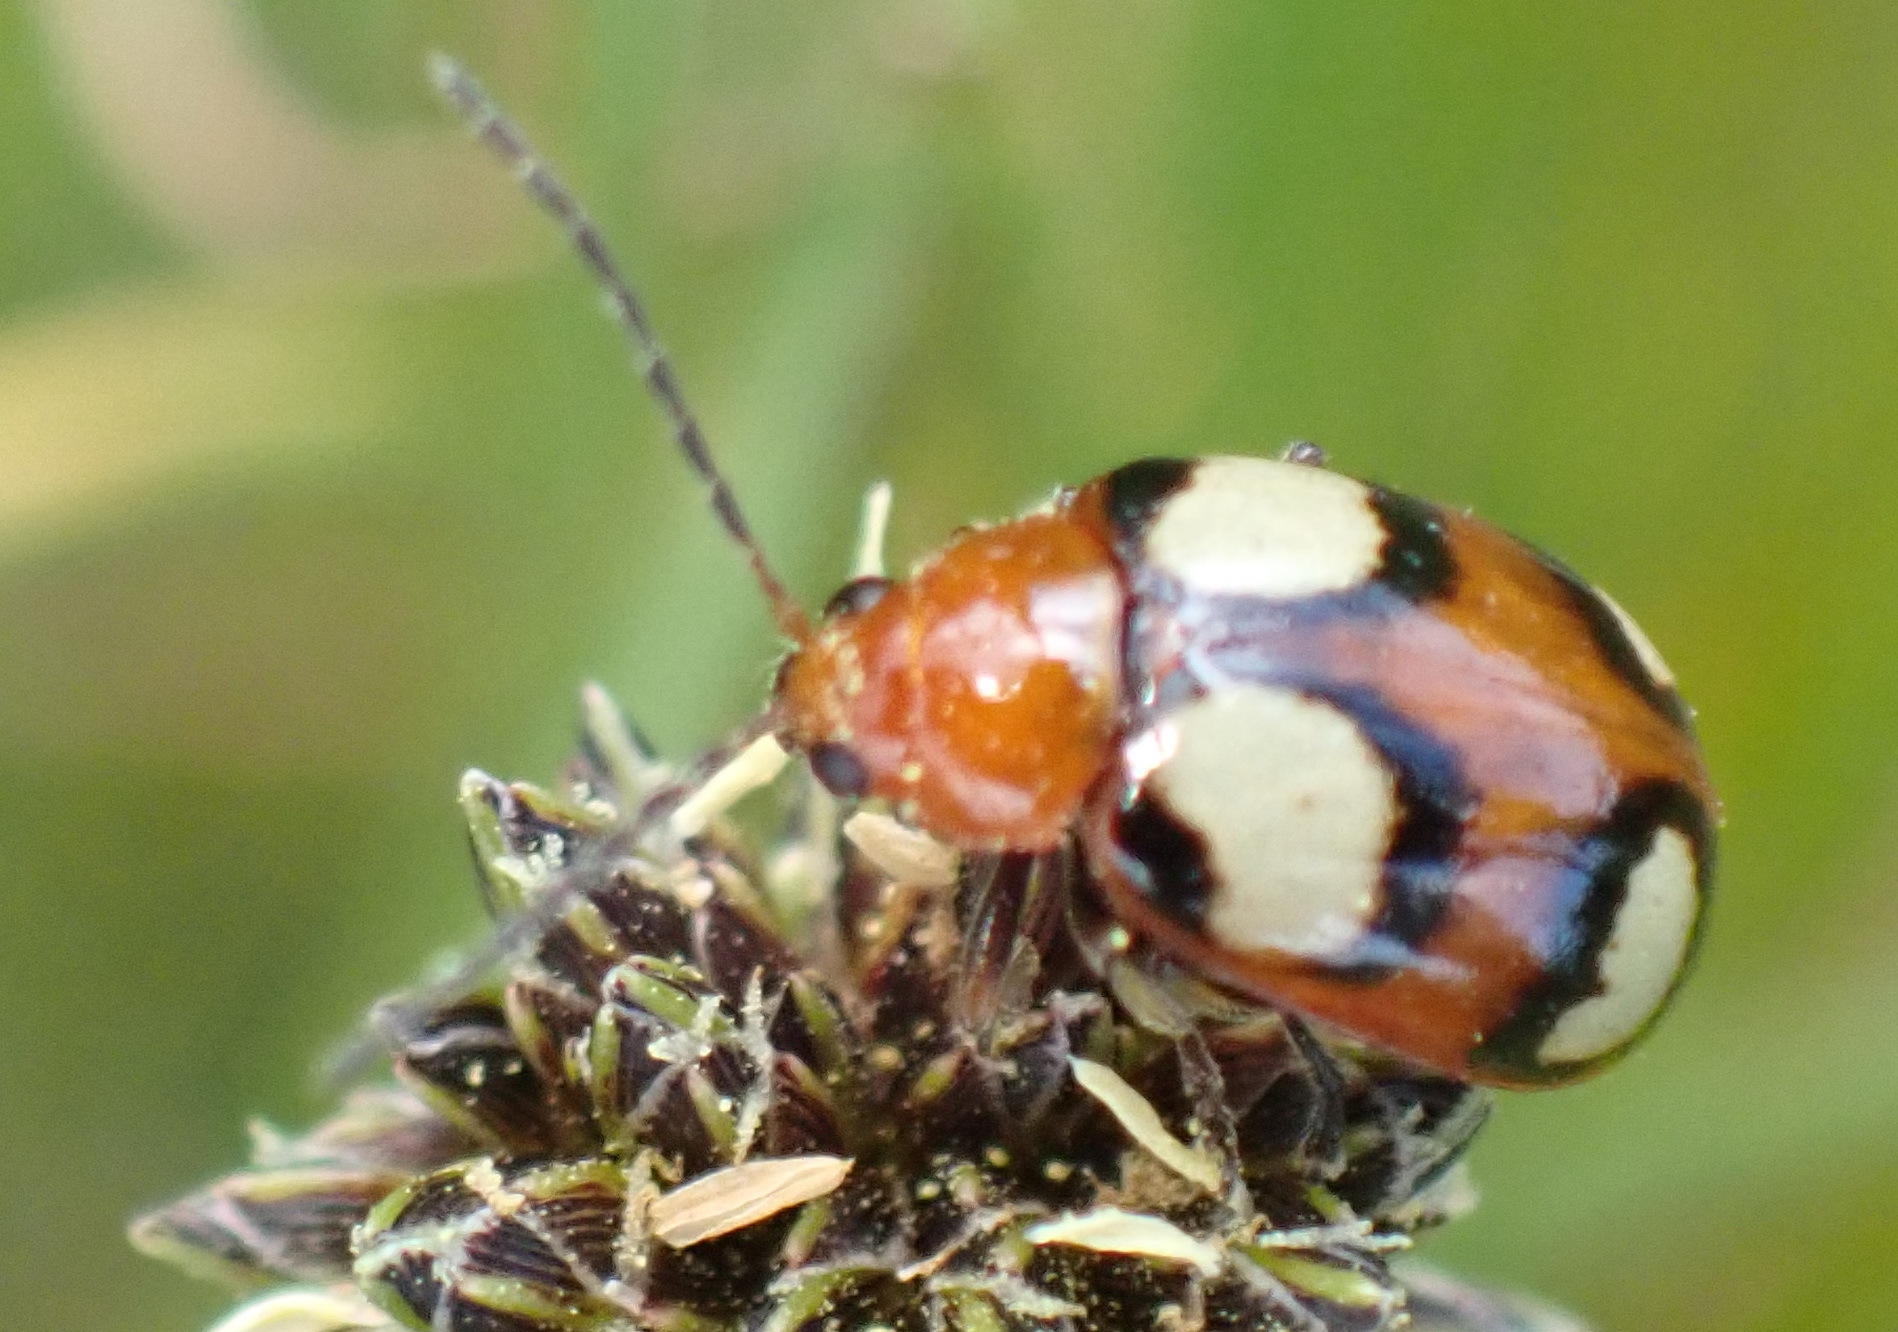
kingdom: Animalia
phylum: Arthropoda
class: Insecta
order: Coleoptera
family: Chrysomelidae
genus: Monolepta
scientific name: Monolepta
